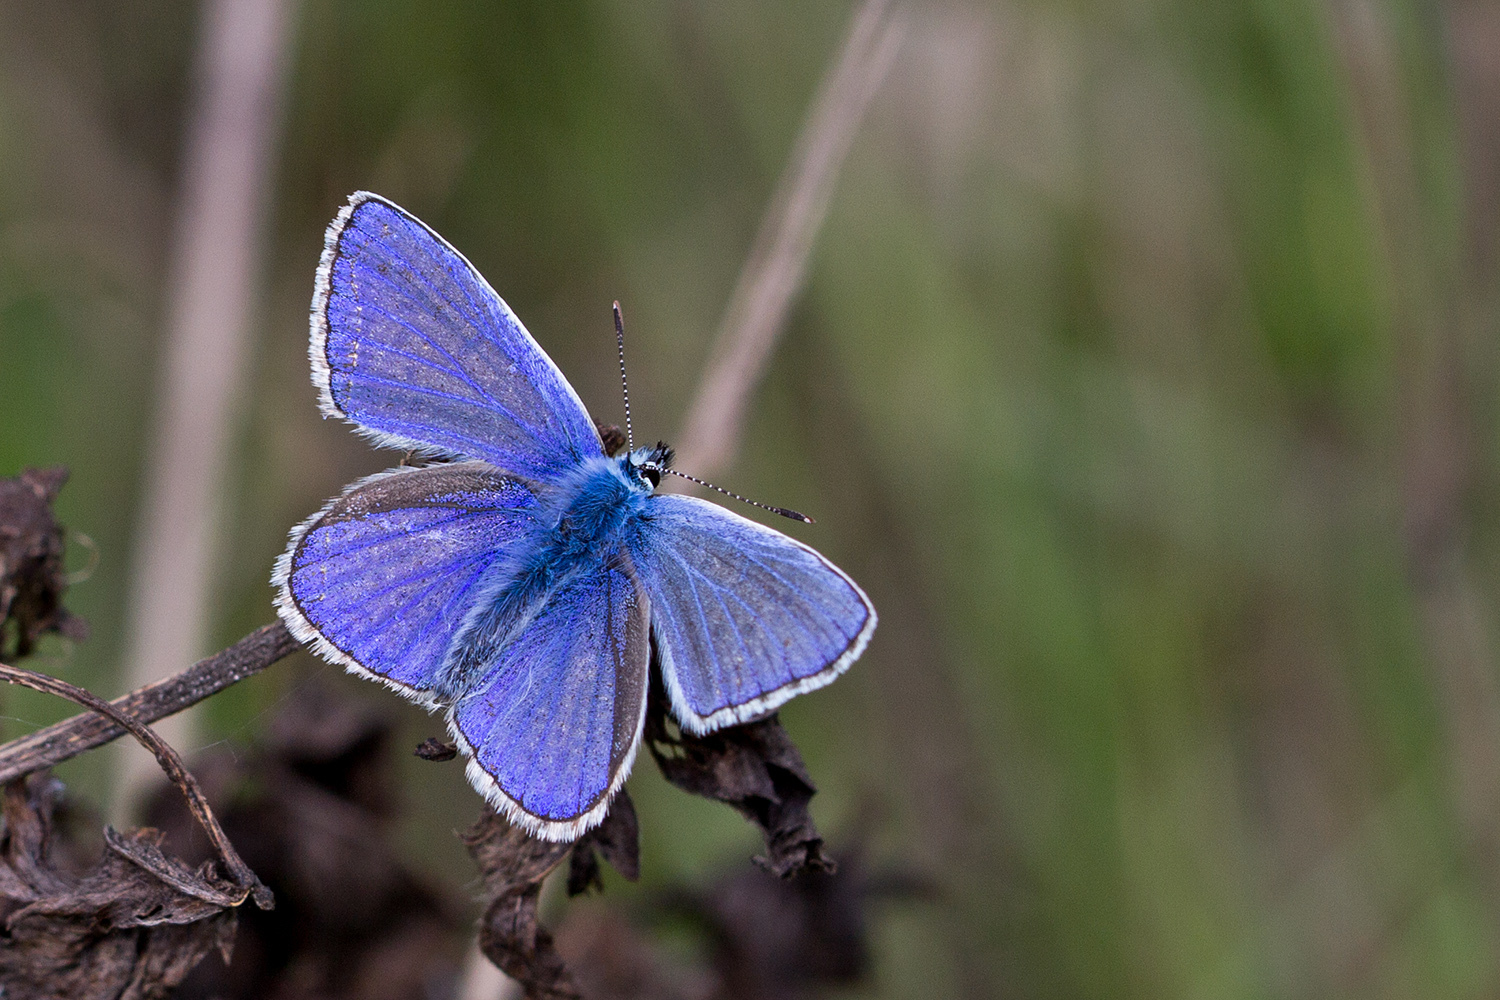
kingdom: Animalia
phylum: Arthropoda
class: Insecta
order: Lepidoptera
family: Lycaenidae
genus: Polyommatus
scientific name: Polyommatus icarus
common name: Common blue
